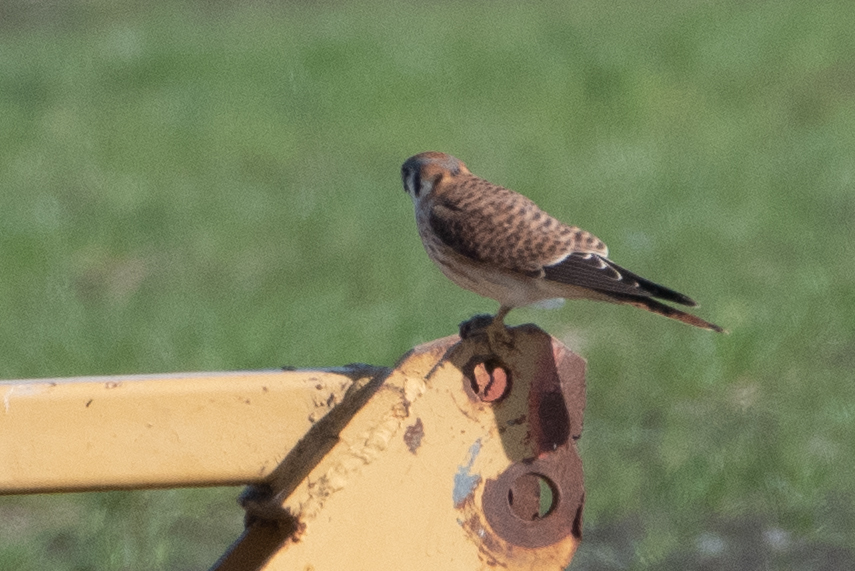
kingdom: Animalia
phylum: Chordata
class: Aves
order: Falconiformes
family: Falconidae
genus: Falco
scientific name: Falco sparverius
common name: American kestrel
